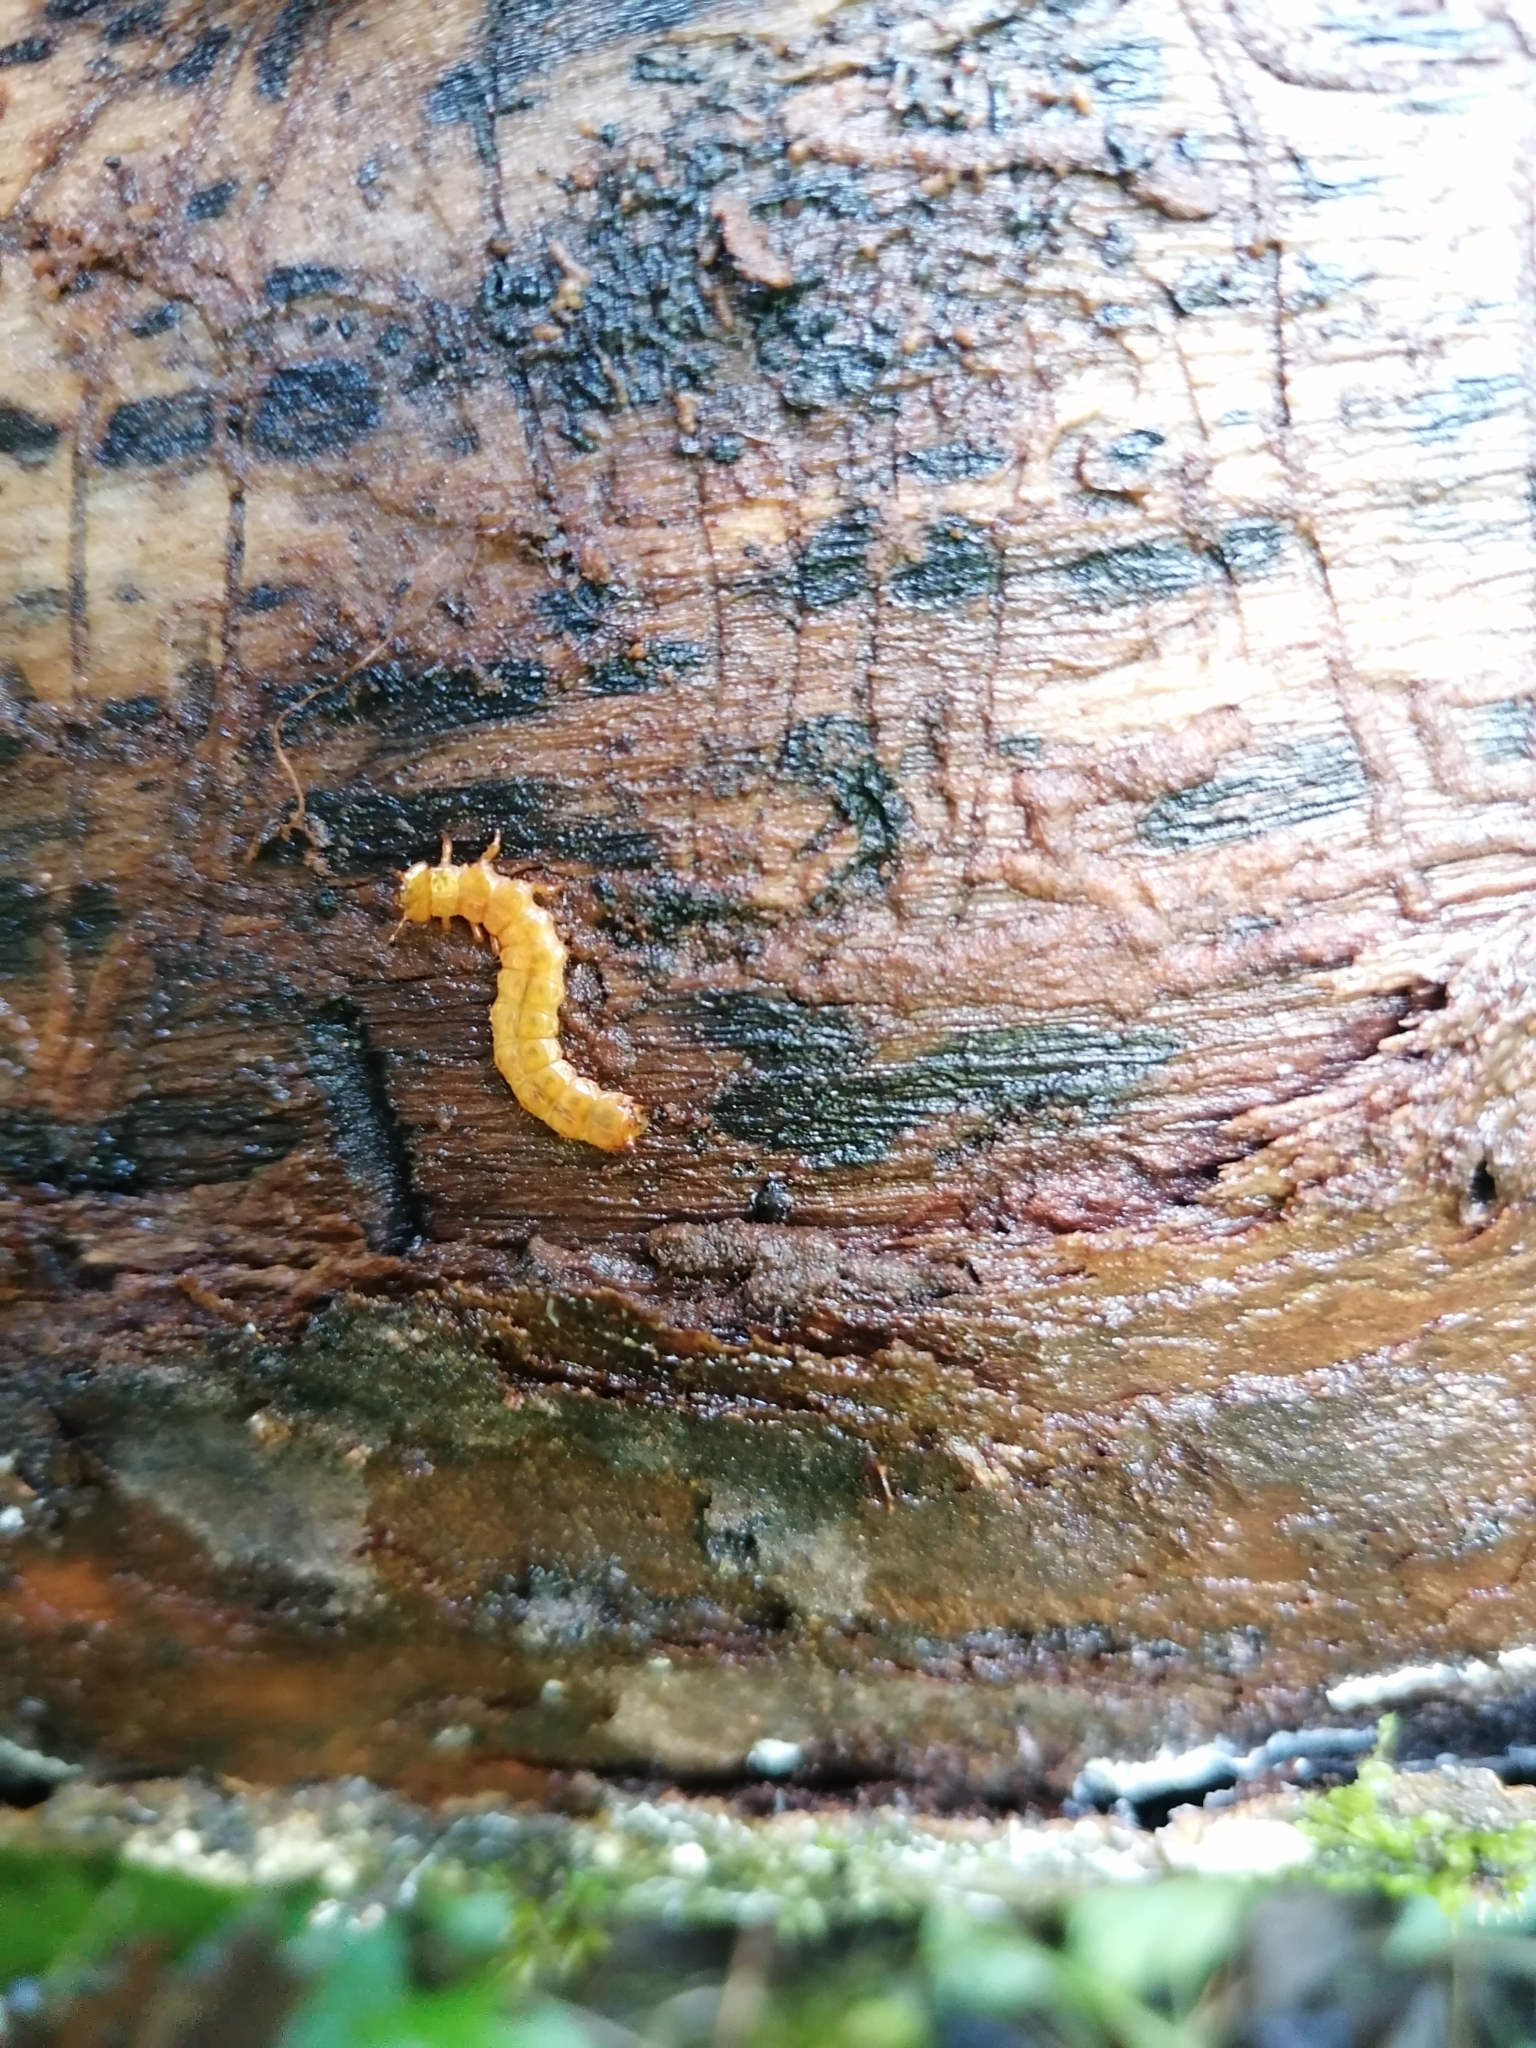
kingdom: Animalia
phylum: Arthropoda
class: Insecta
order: Coleoptera
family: Cucujidae
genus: Cucujus
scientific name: Cucujus cinnaberinus
